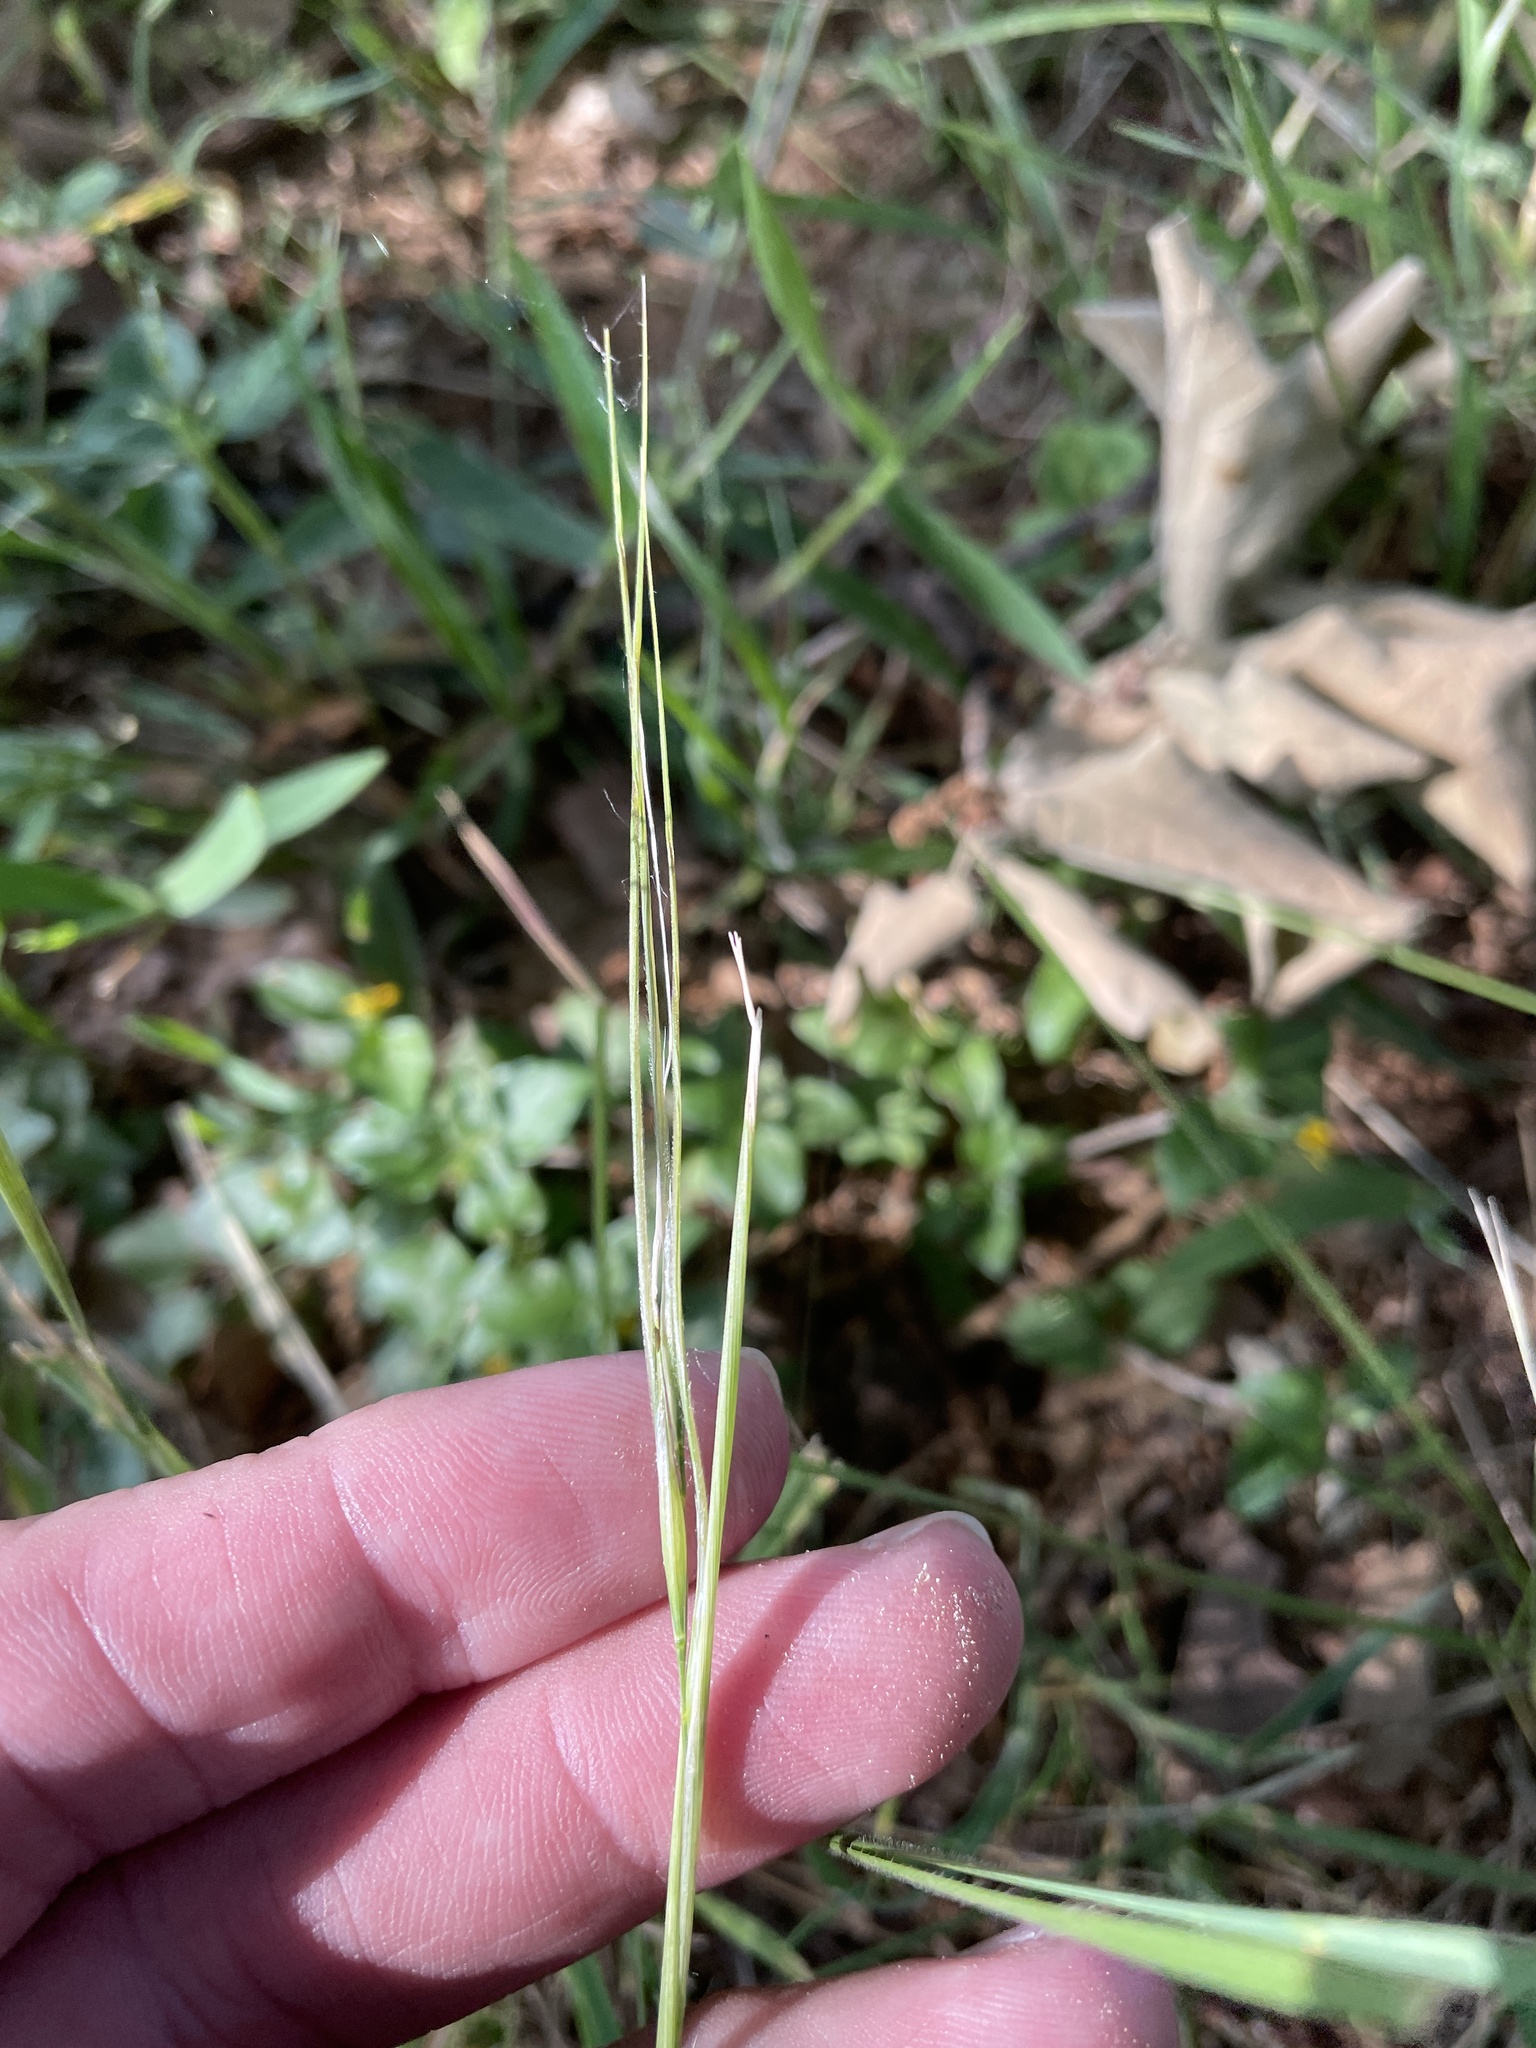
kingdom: Plantae
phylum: Tracheophyta
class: Liliopsida
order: Poales
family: Poaceae
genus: Nassella
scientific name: Nassella leucotricha
